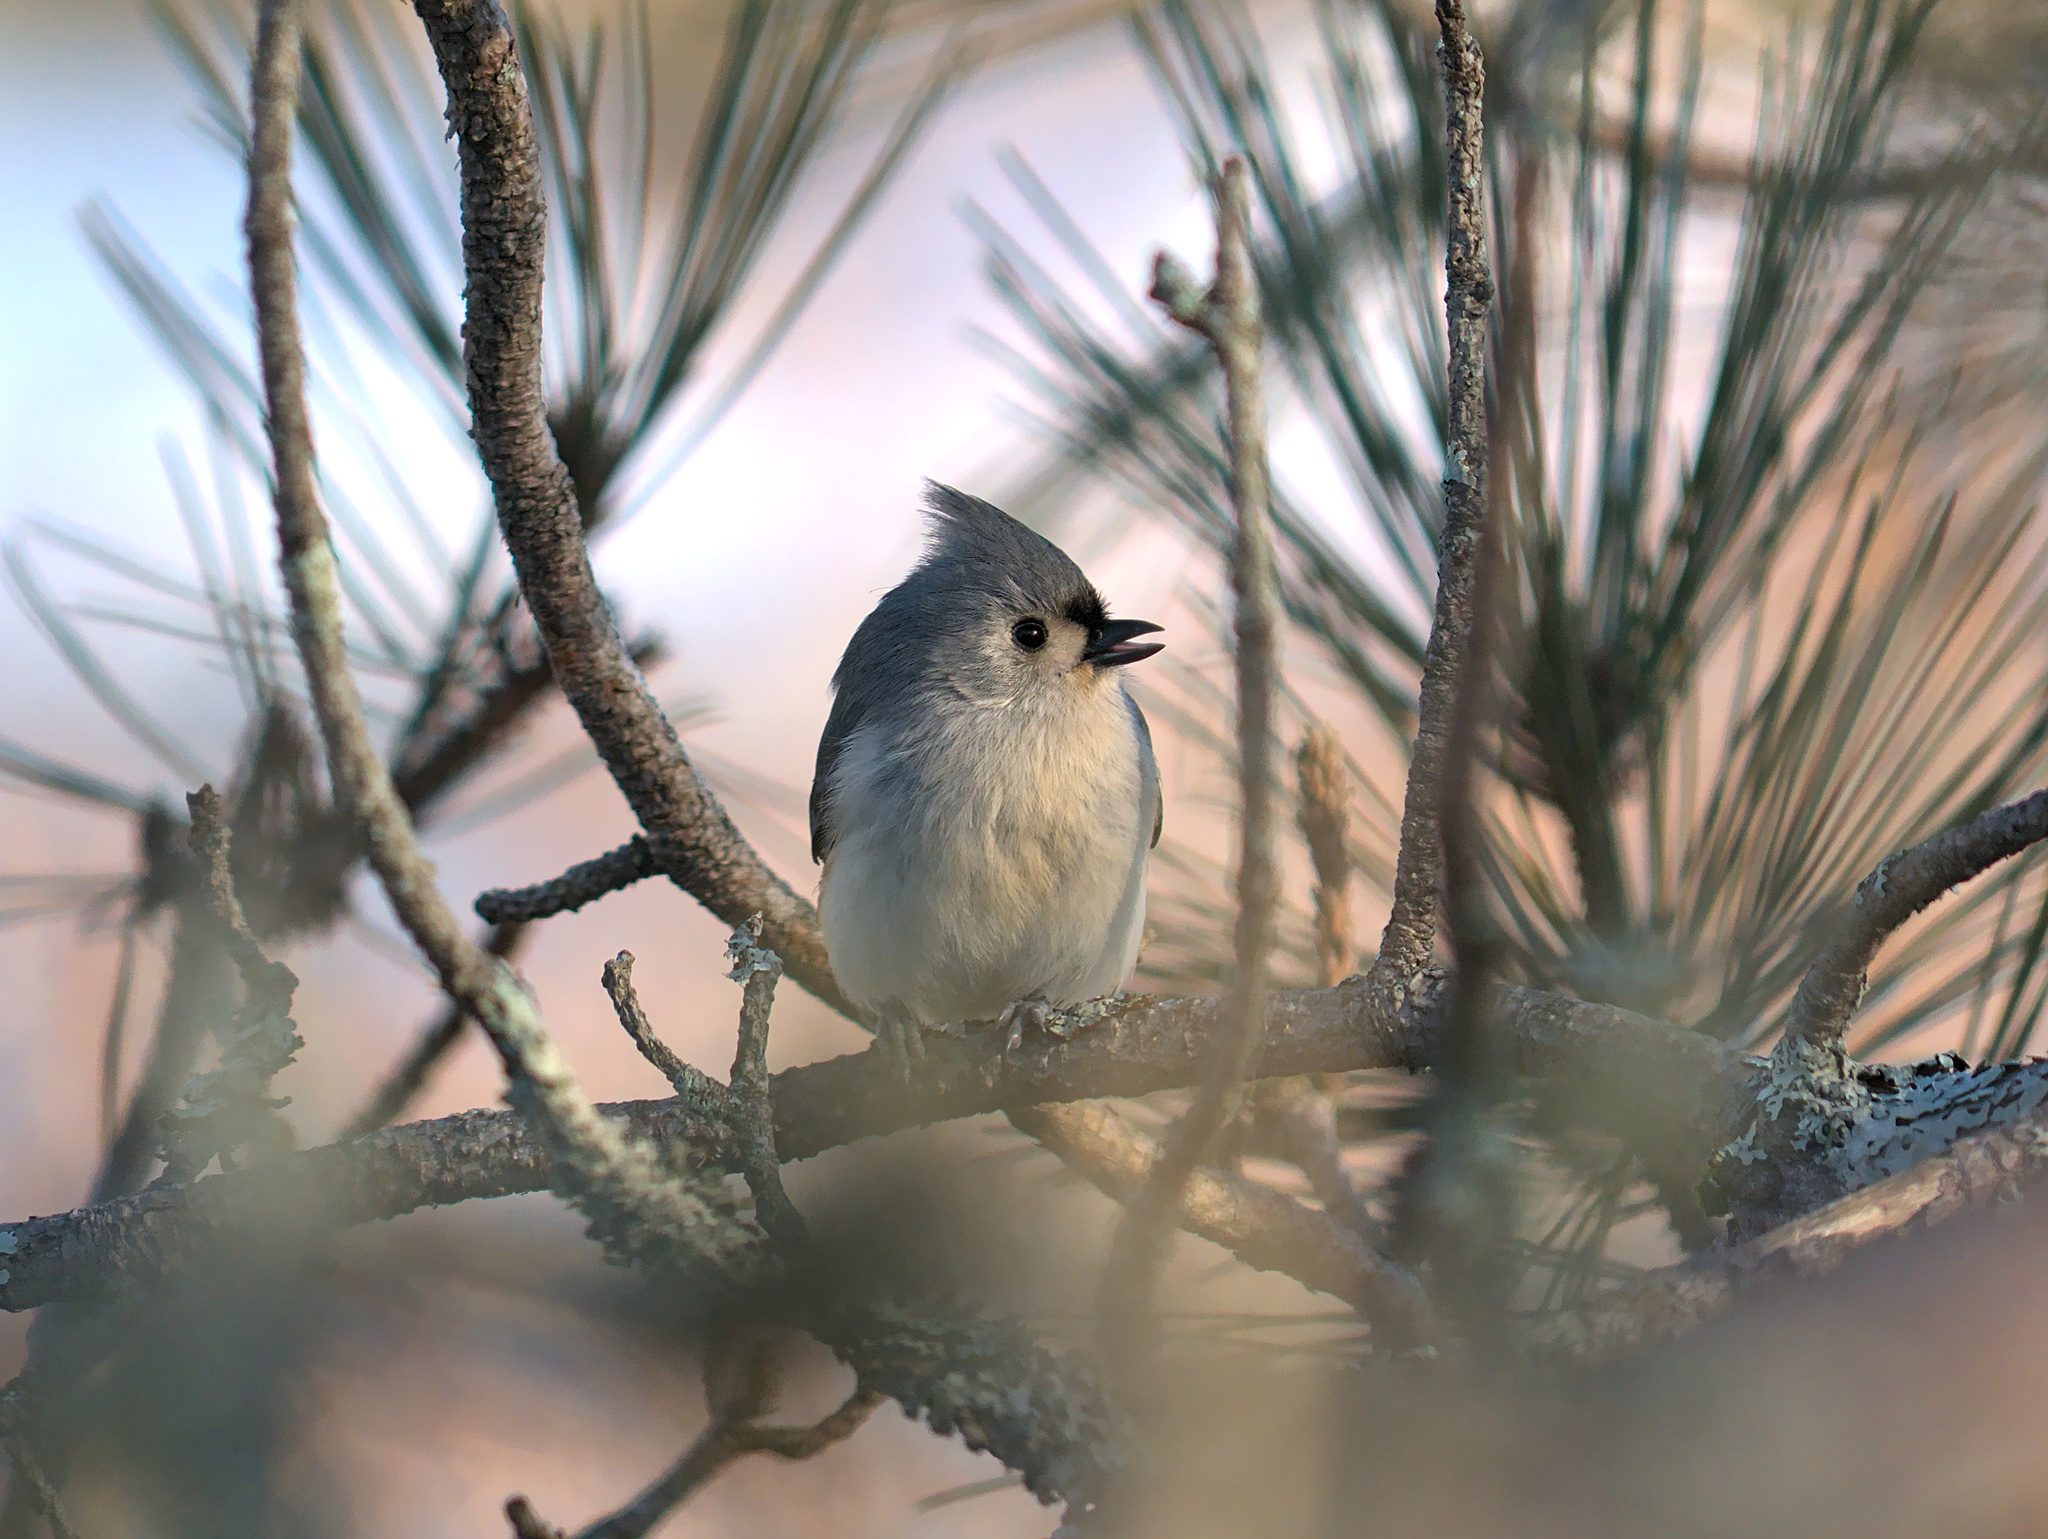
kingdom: Animalia
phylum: Chordata
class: Aves
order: Passeriformes
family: Paridae
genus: Baeolophus
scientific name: Baeolophus bicolor
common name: Tufted titmouse
